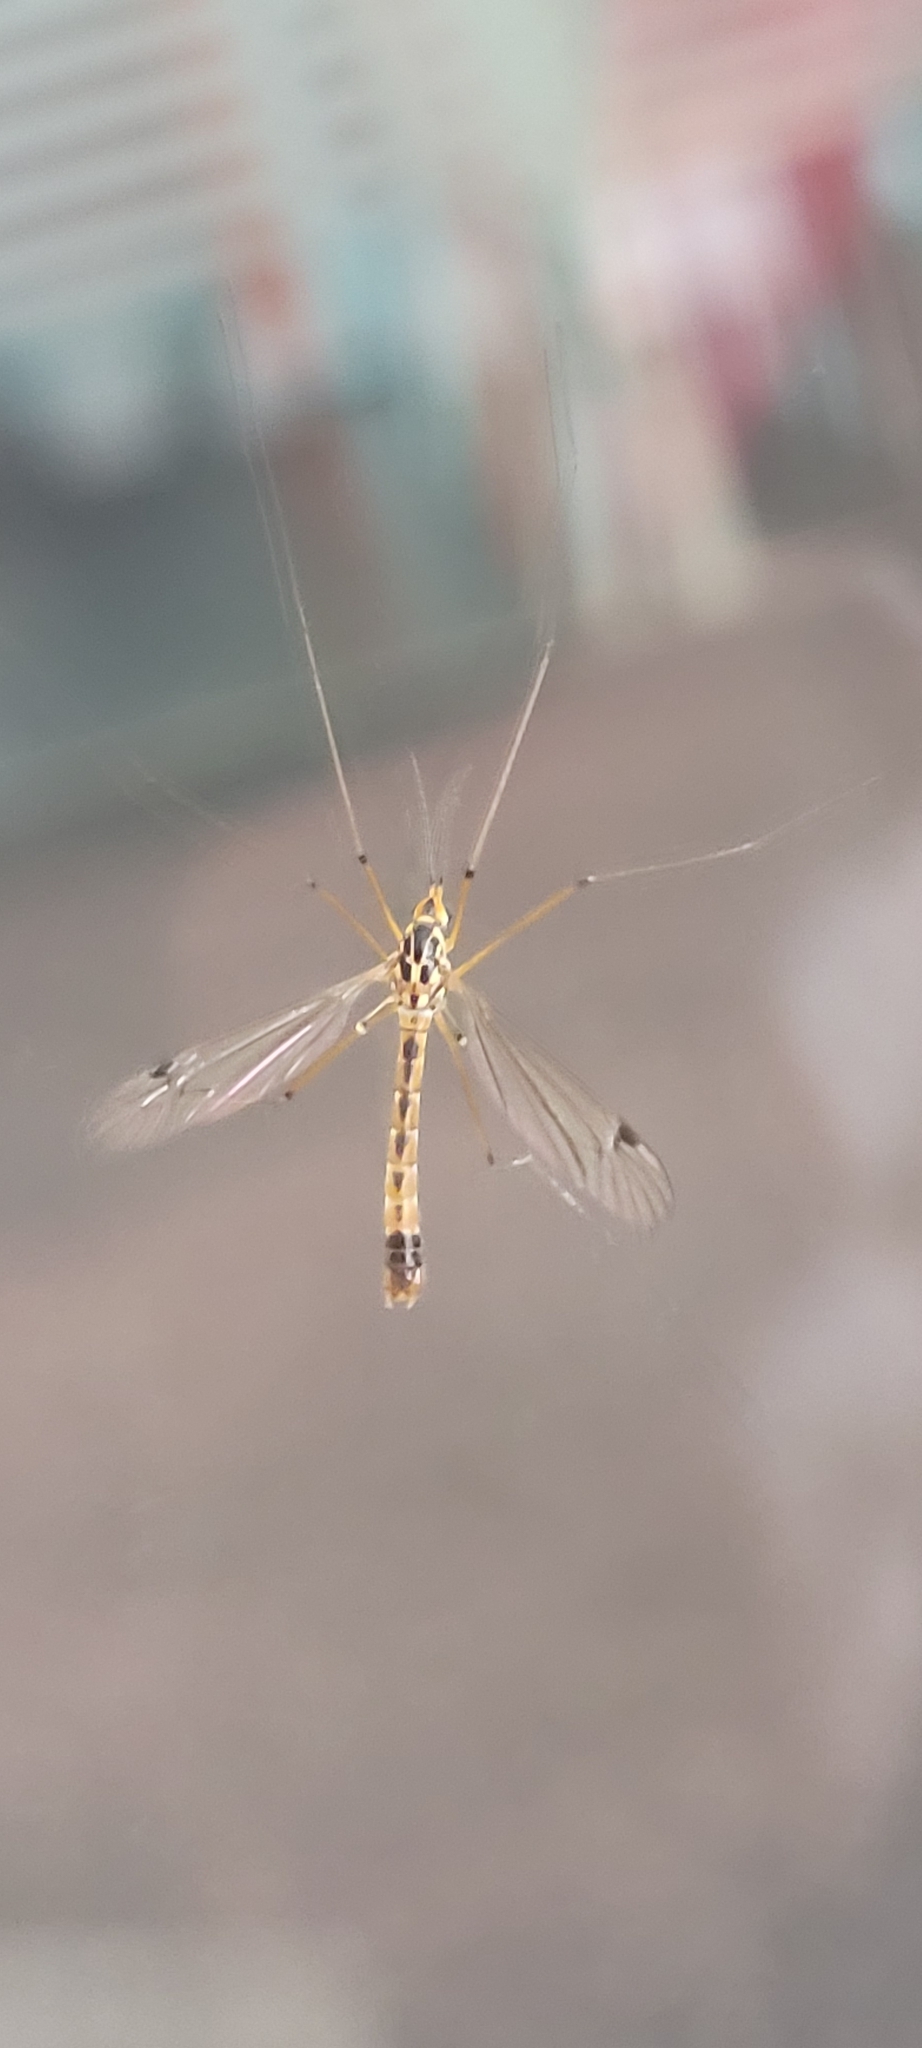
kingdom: Animalia
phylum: Arthropoda
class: Insecta
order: Diptera
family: Tipulidae
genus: Nephrotoma
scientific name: Nephrotoma guestfalica
